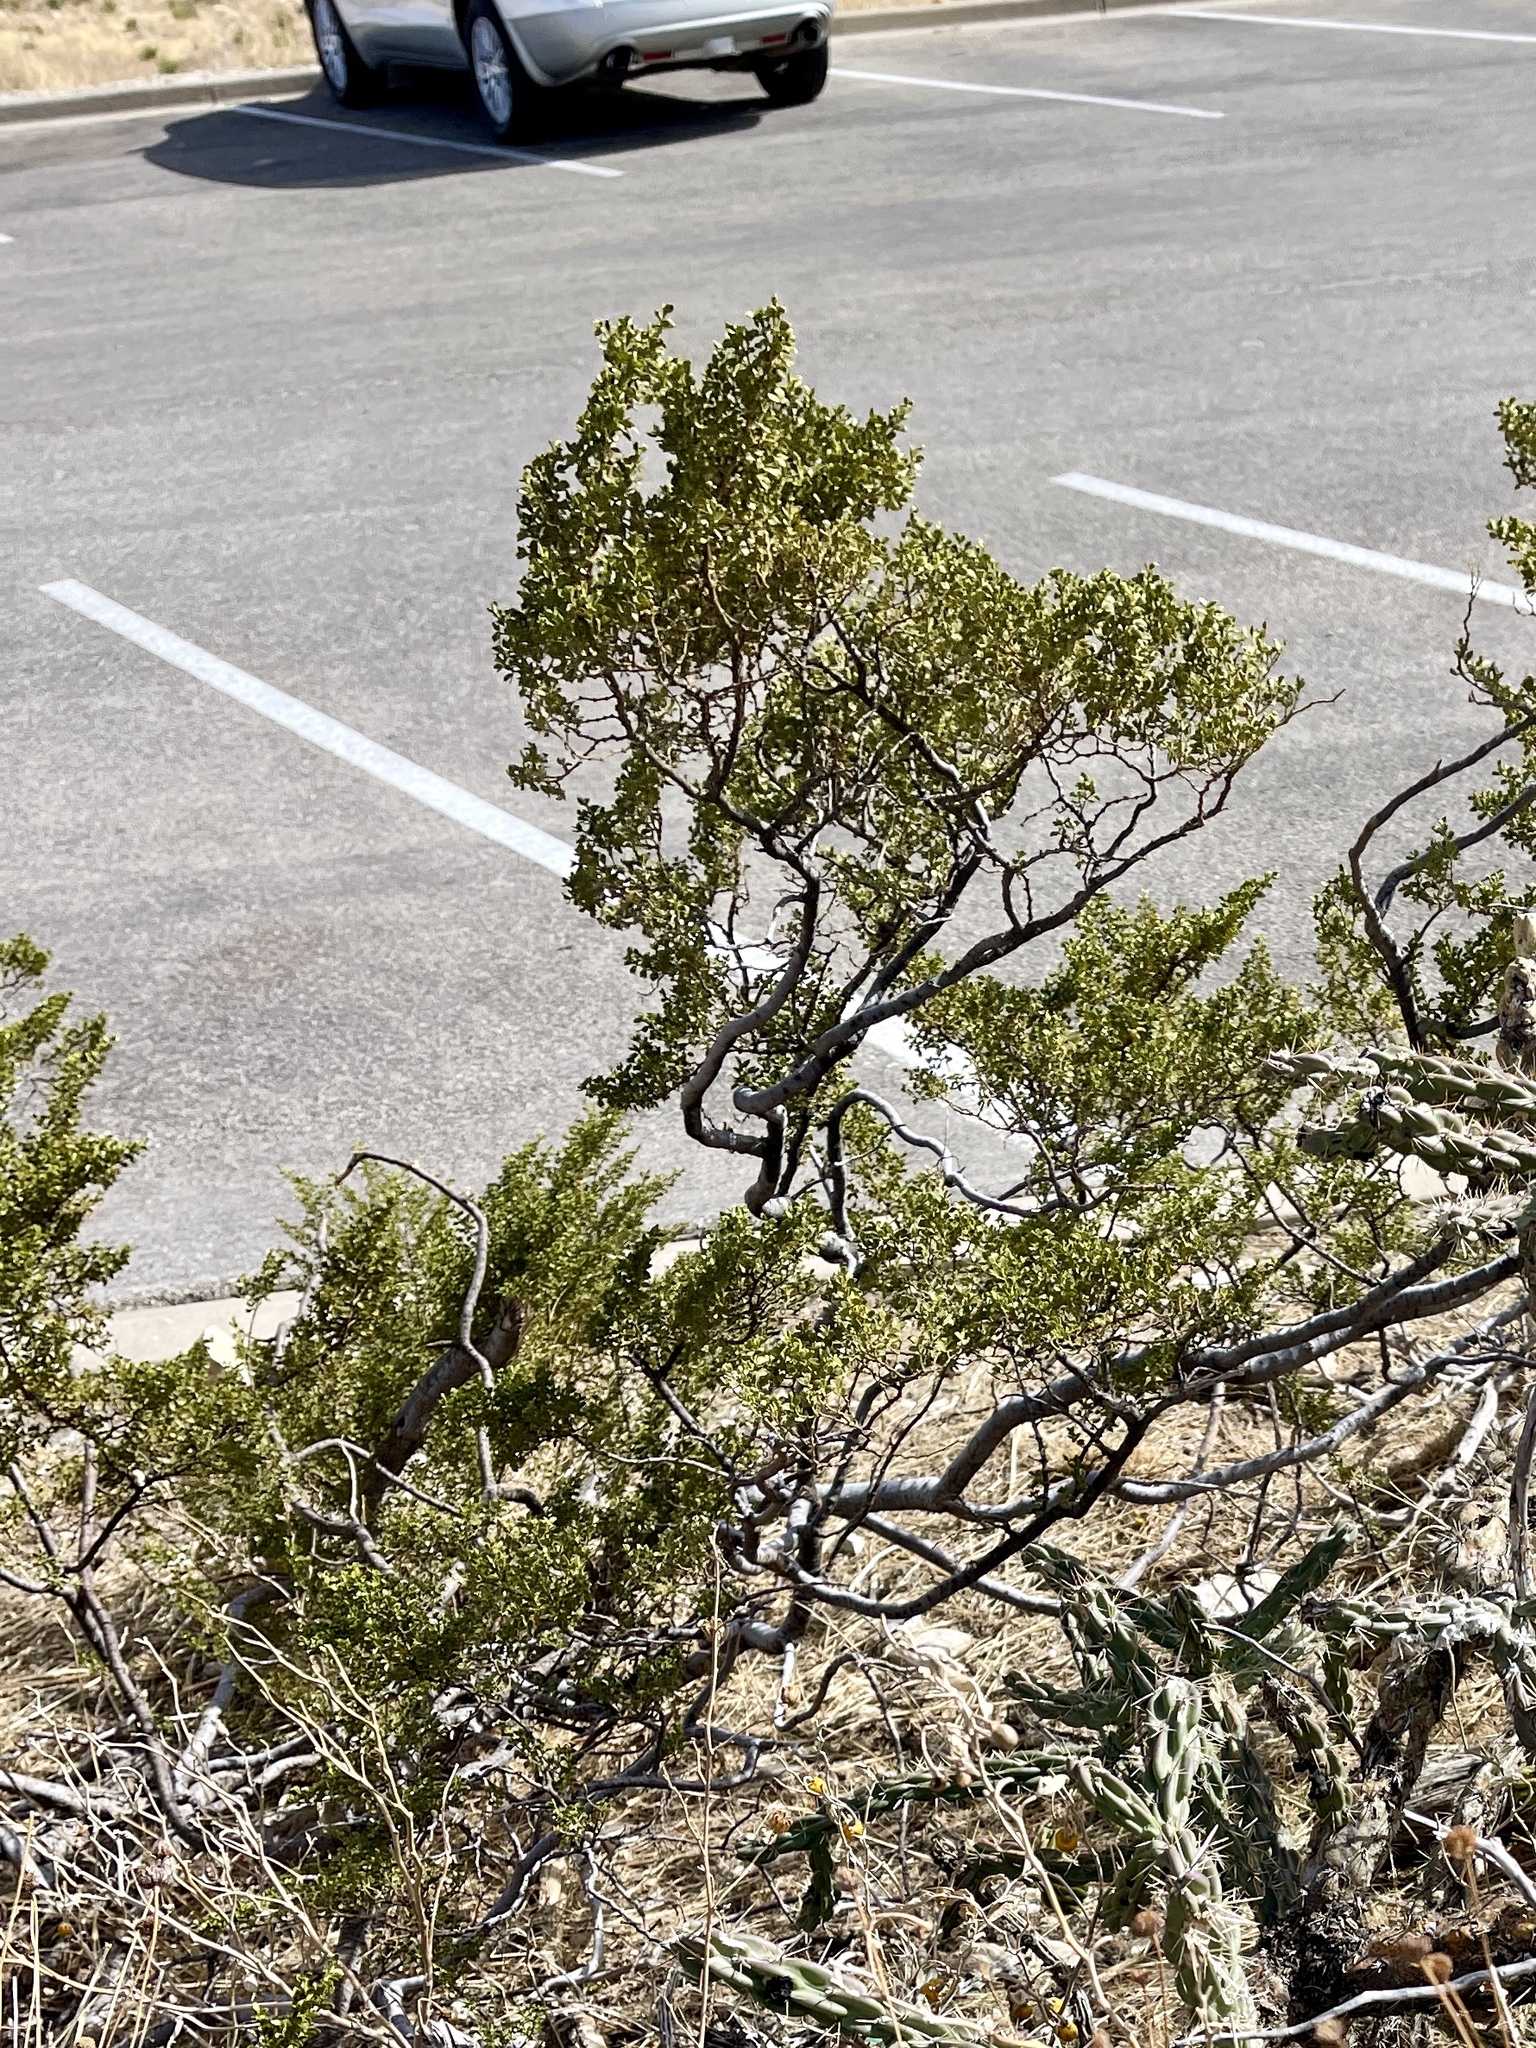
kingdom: Plantae
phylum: Tracheophyta
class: Magnoliopsida
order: Zygophyllales
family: Zygophyllaceae
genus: Larrea
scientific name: Larrea tridentata
